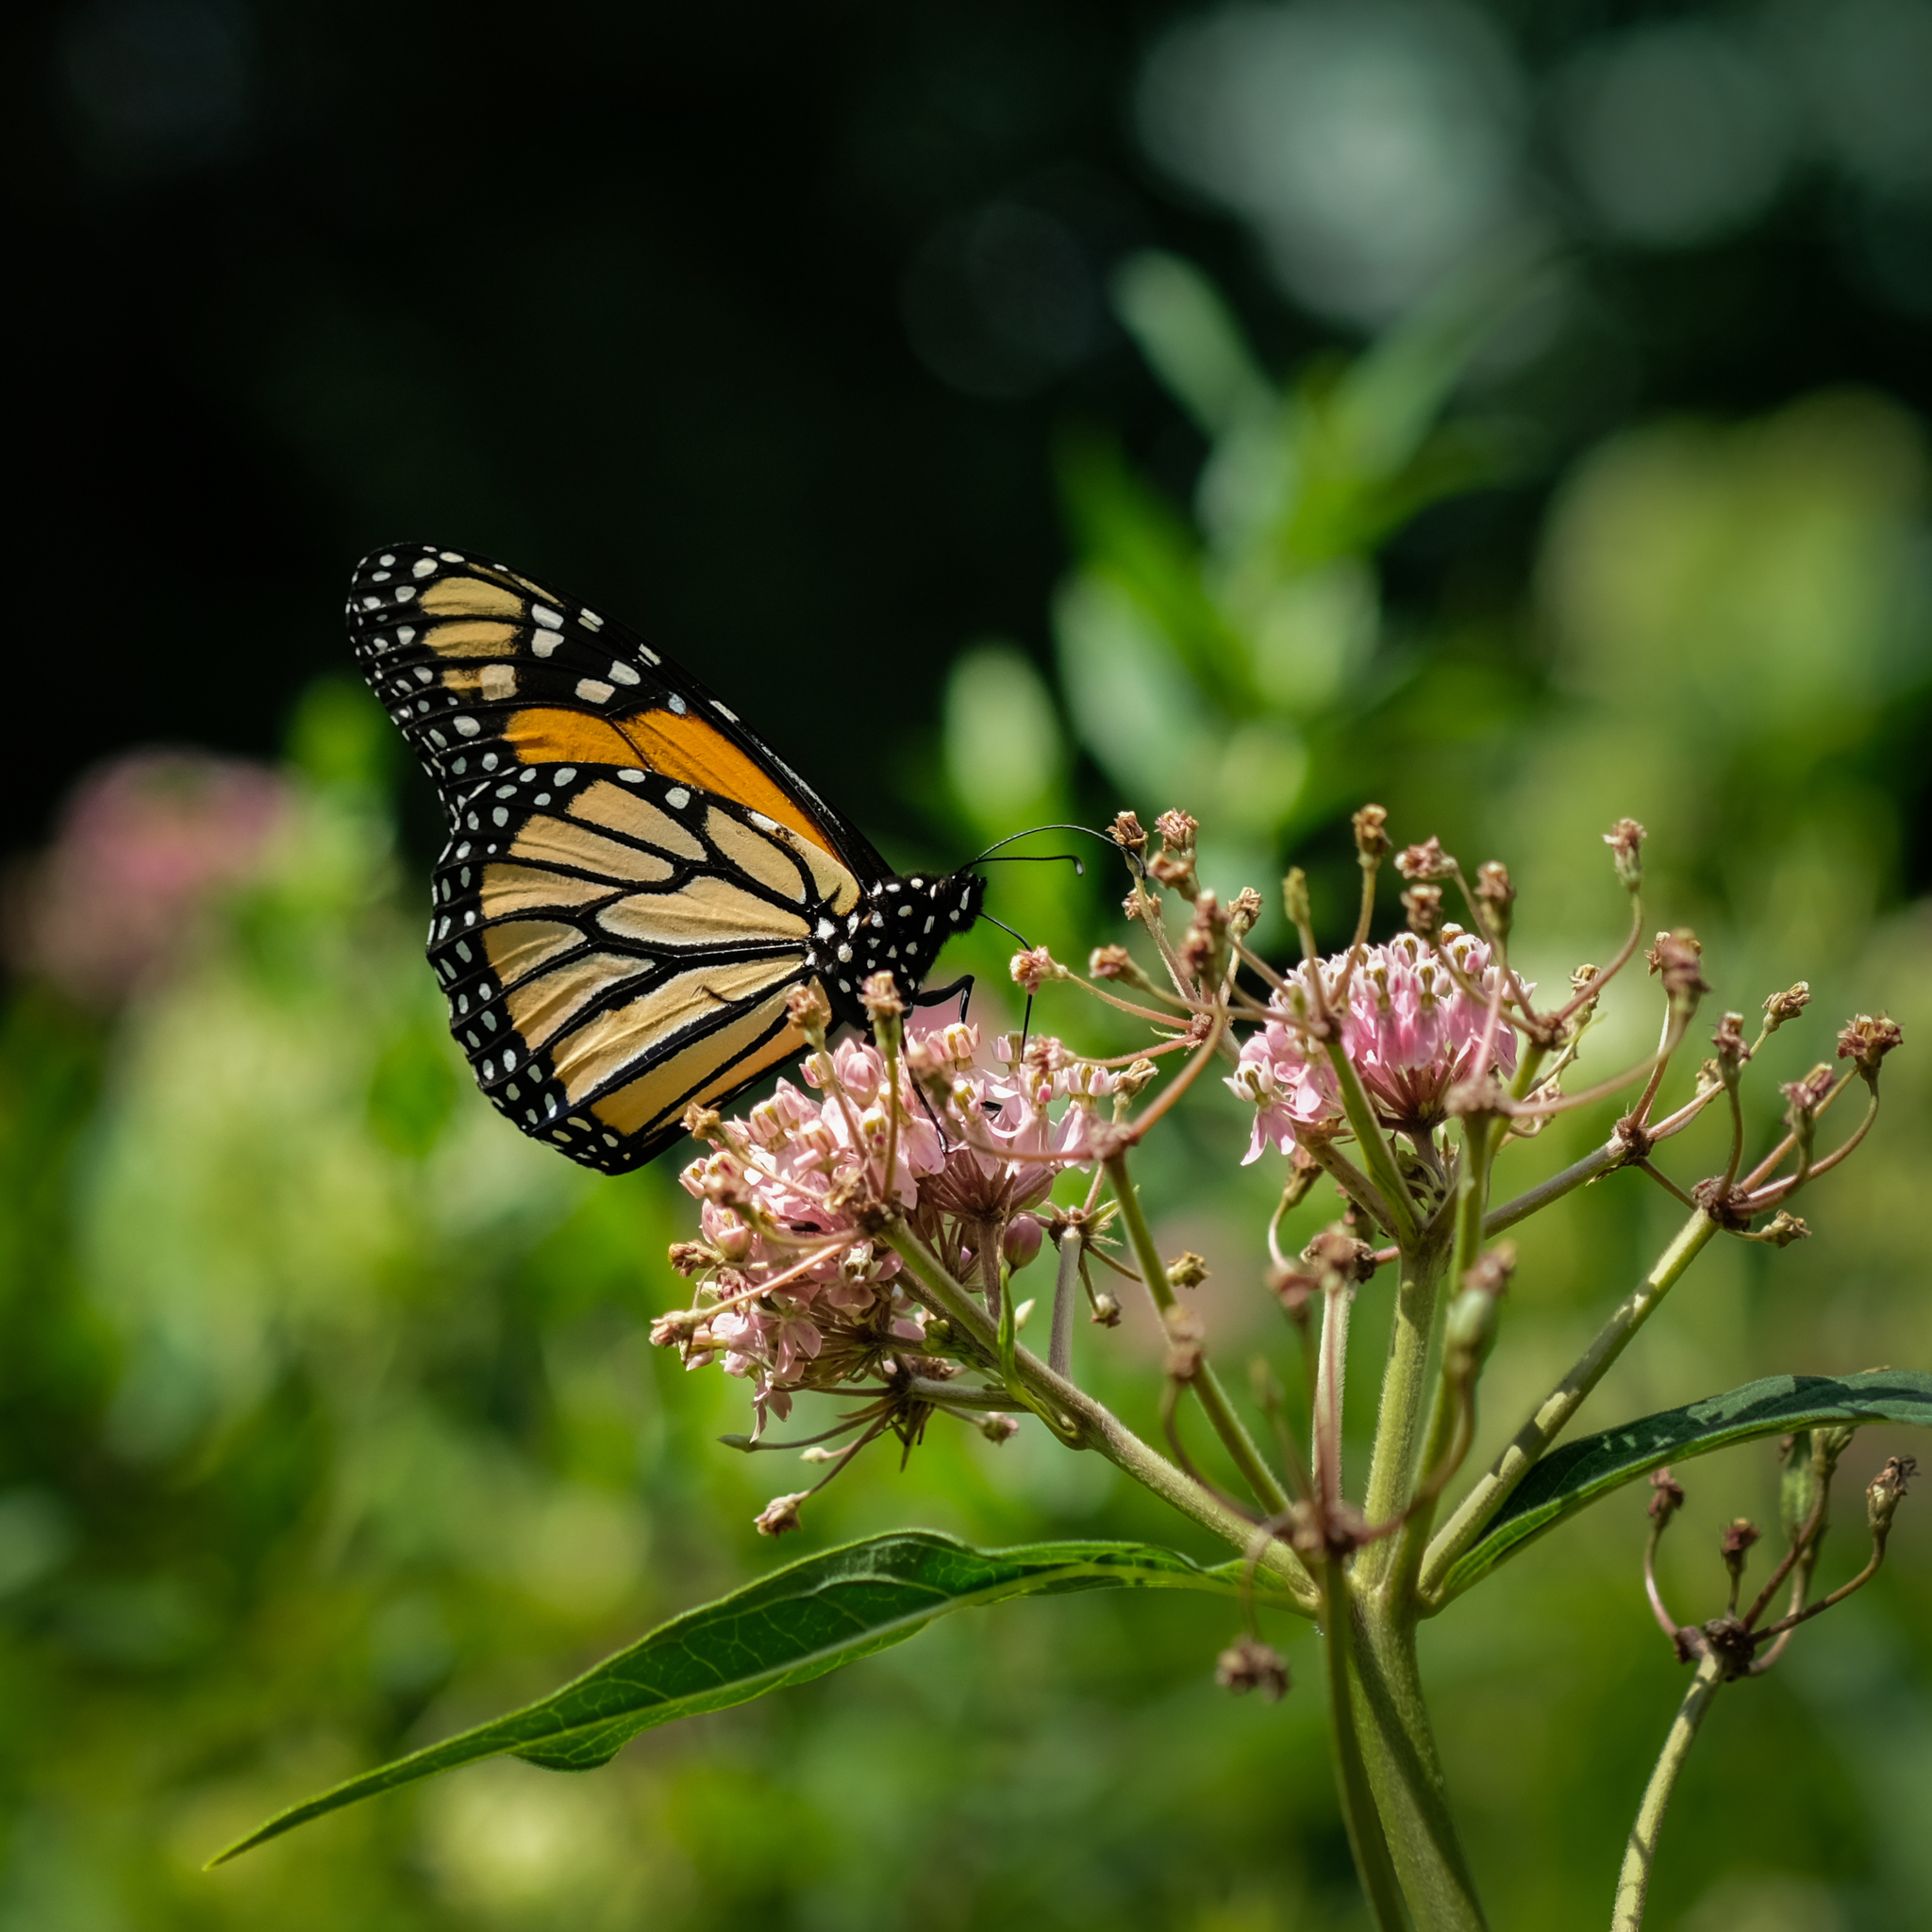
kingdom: Animalia
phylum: Arthropoda
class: Insecta
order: Lepidoptera
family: Nymphalidae
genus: Danaus
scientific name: Danaus plexippus
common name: Monarch
